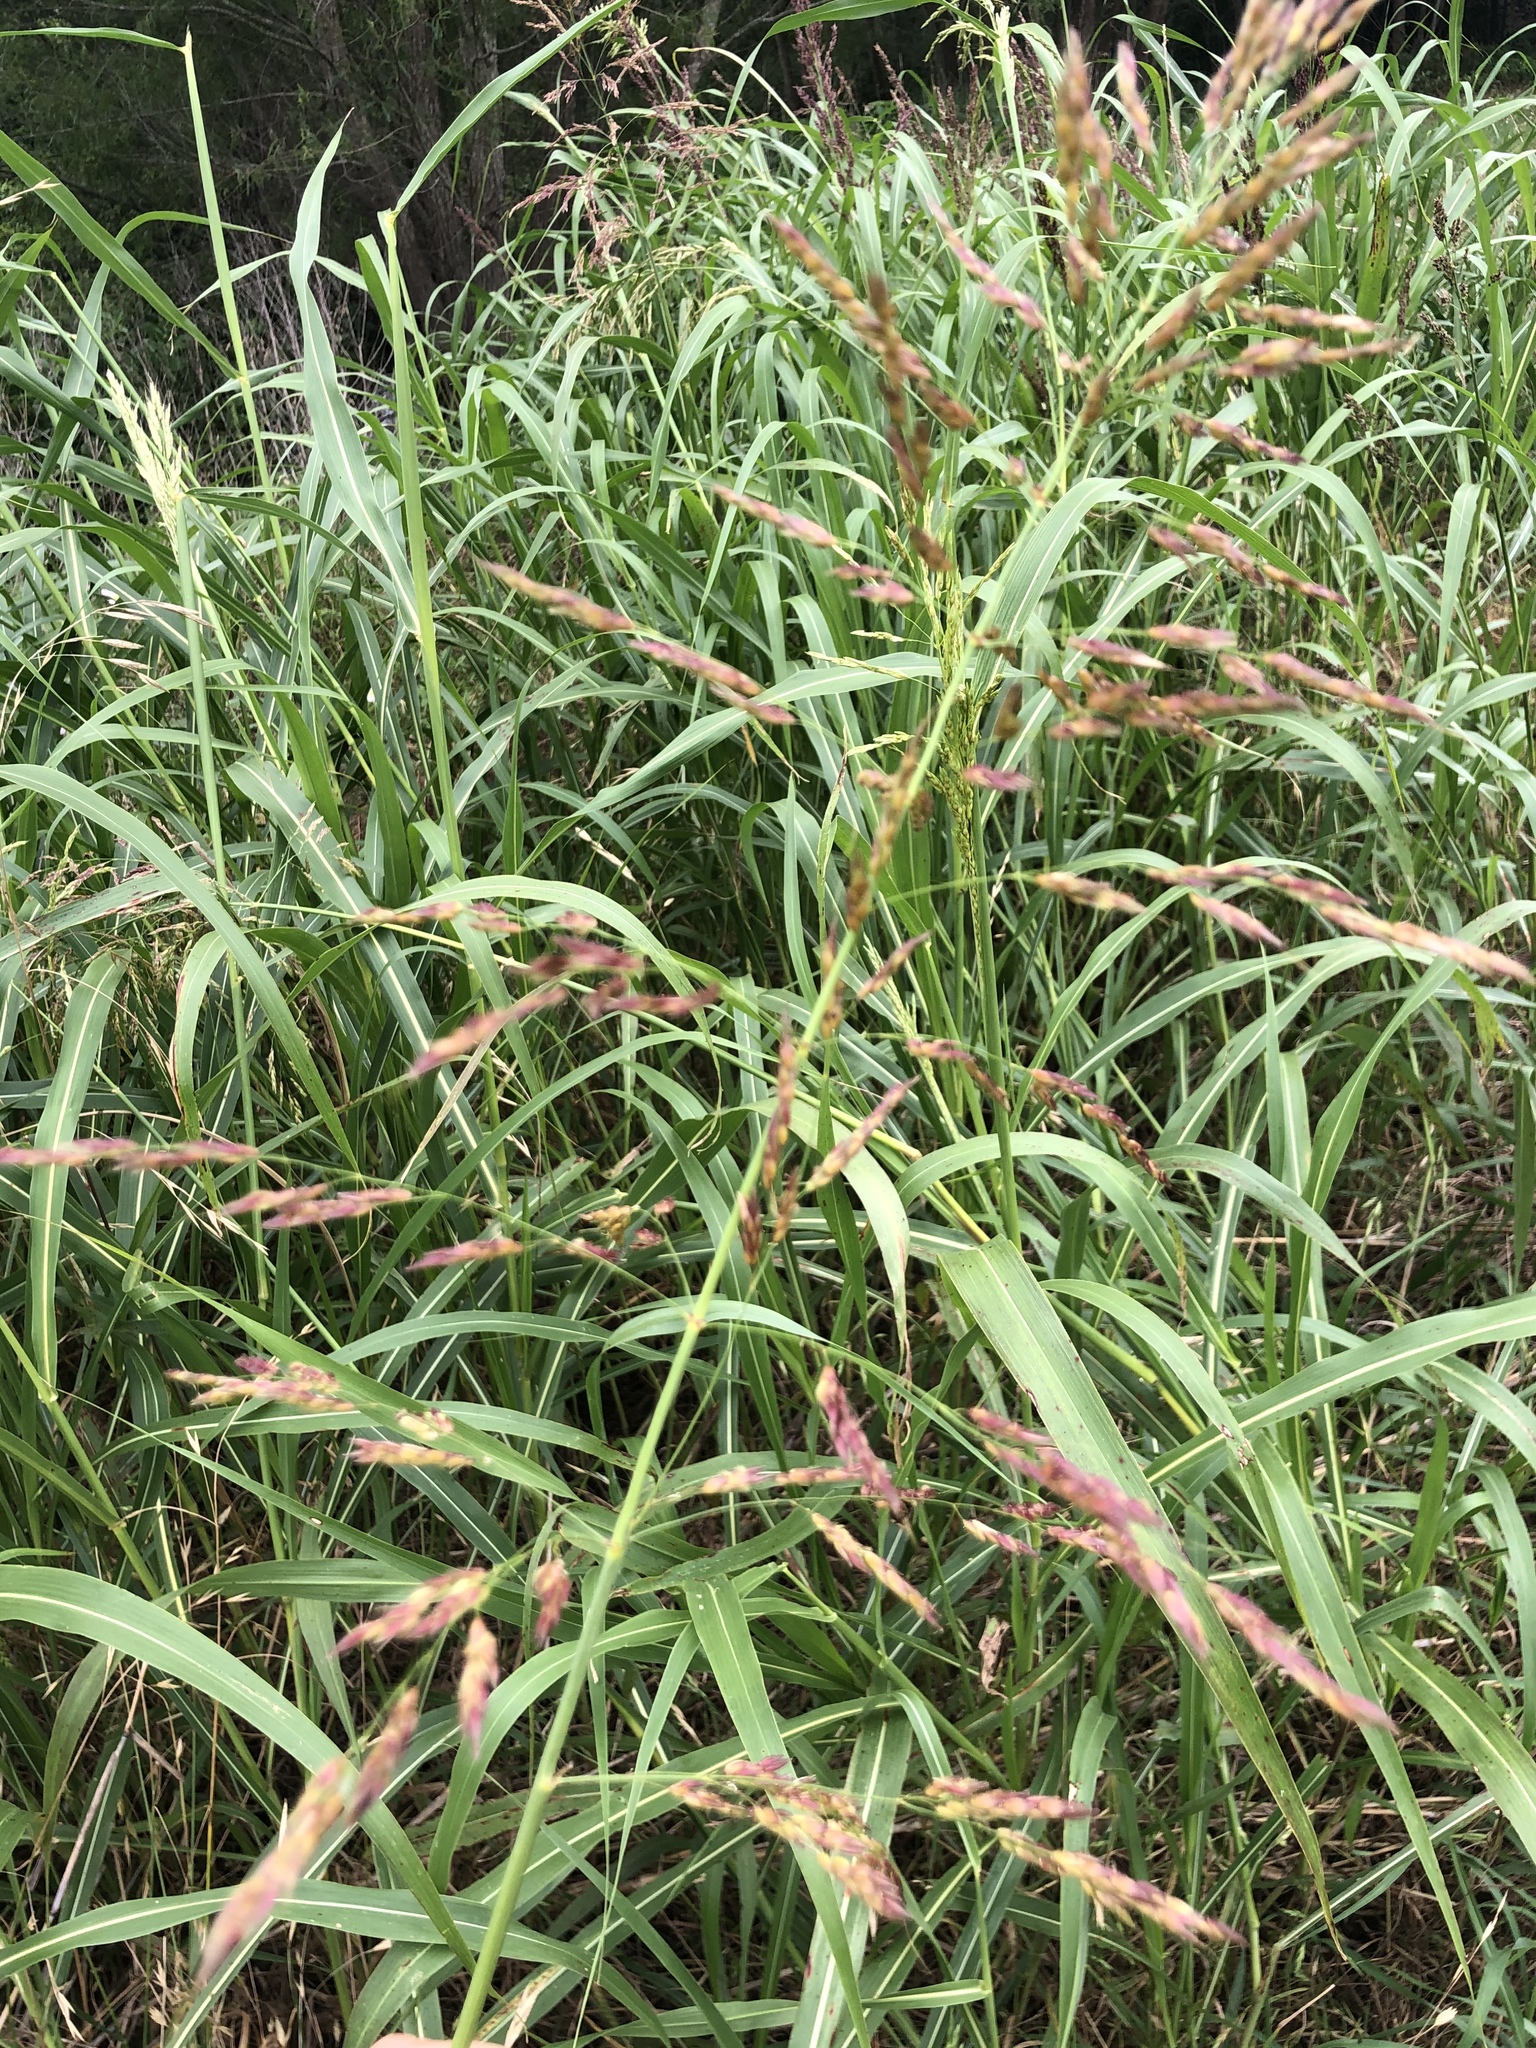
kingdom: Plantae
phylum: Tracheophyta
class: Liliopsida
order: Poales
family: Poaceae
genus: Sorghum
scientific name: Sorghum halepense
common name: Johnson-grass
